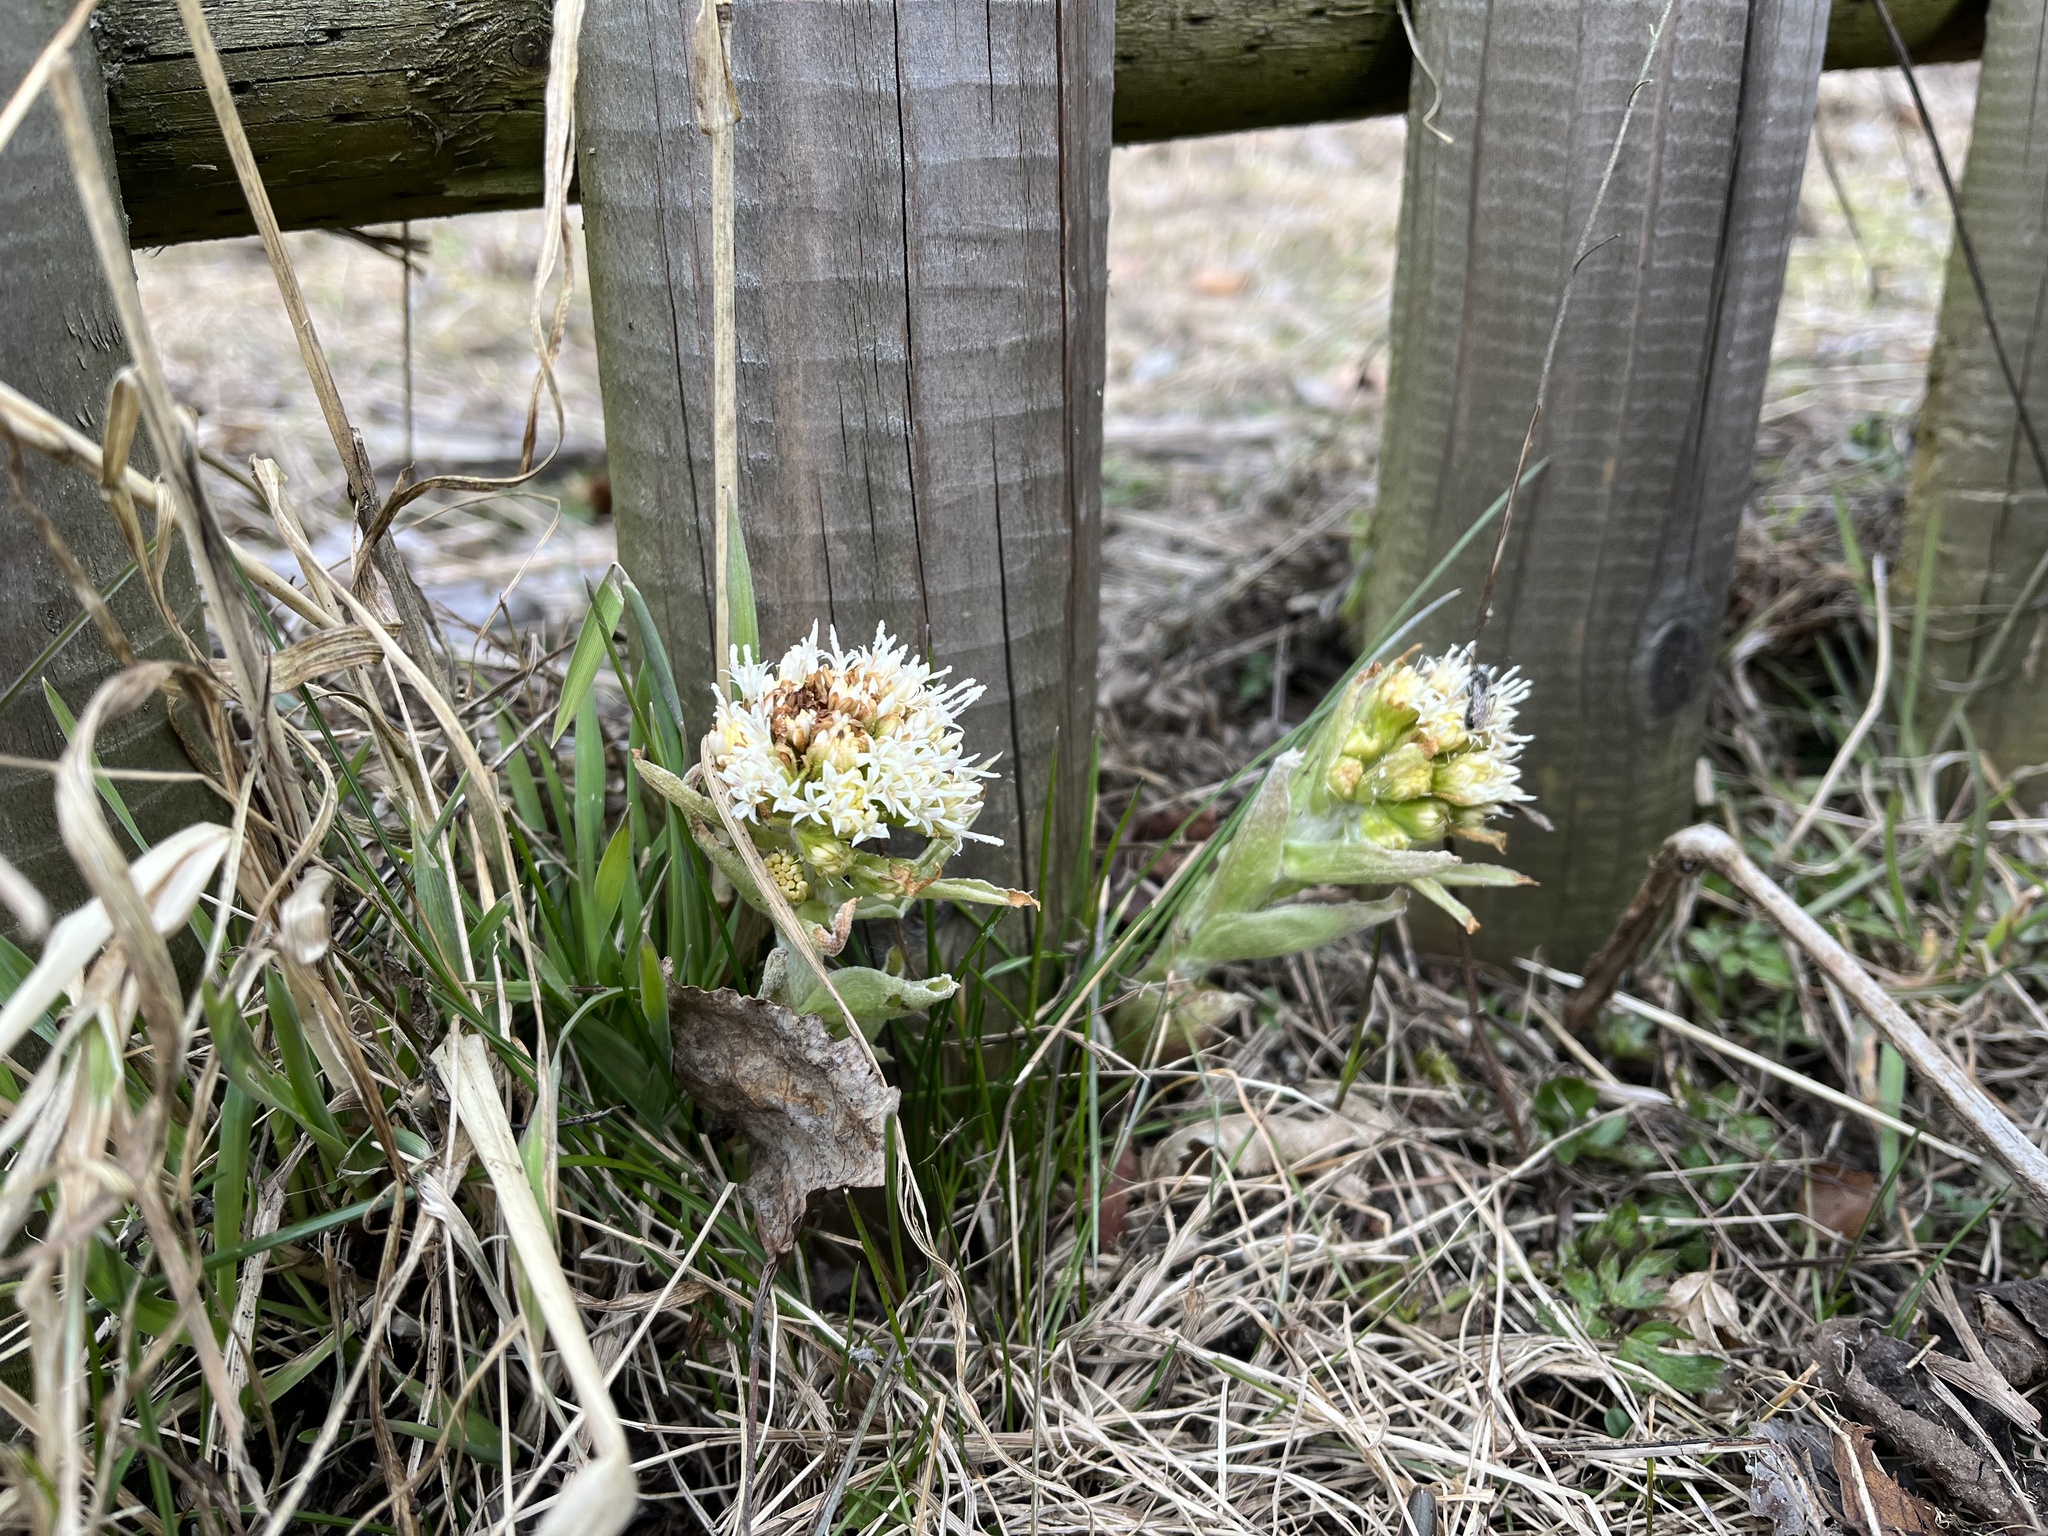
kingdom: Plantae
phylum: Tracheophyta
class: Magnoliopsida
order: Asterales
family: Asteraceae
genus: Petasites
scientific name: Petasites albus
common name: White butterbur
